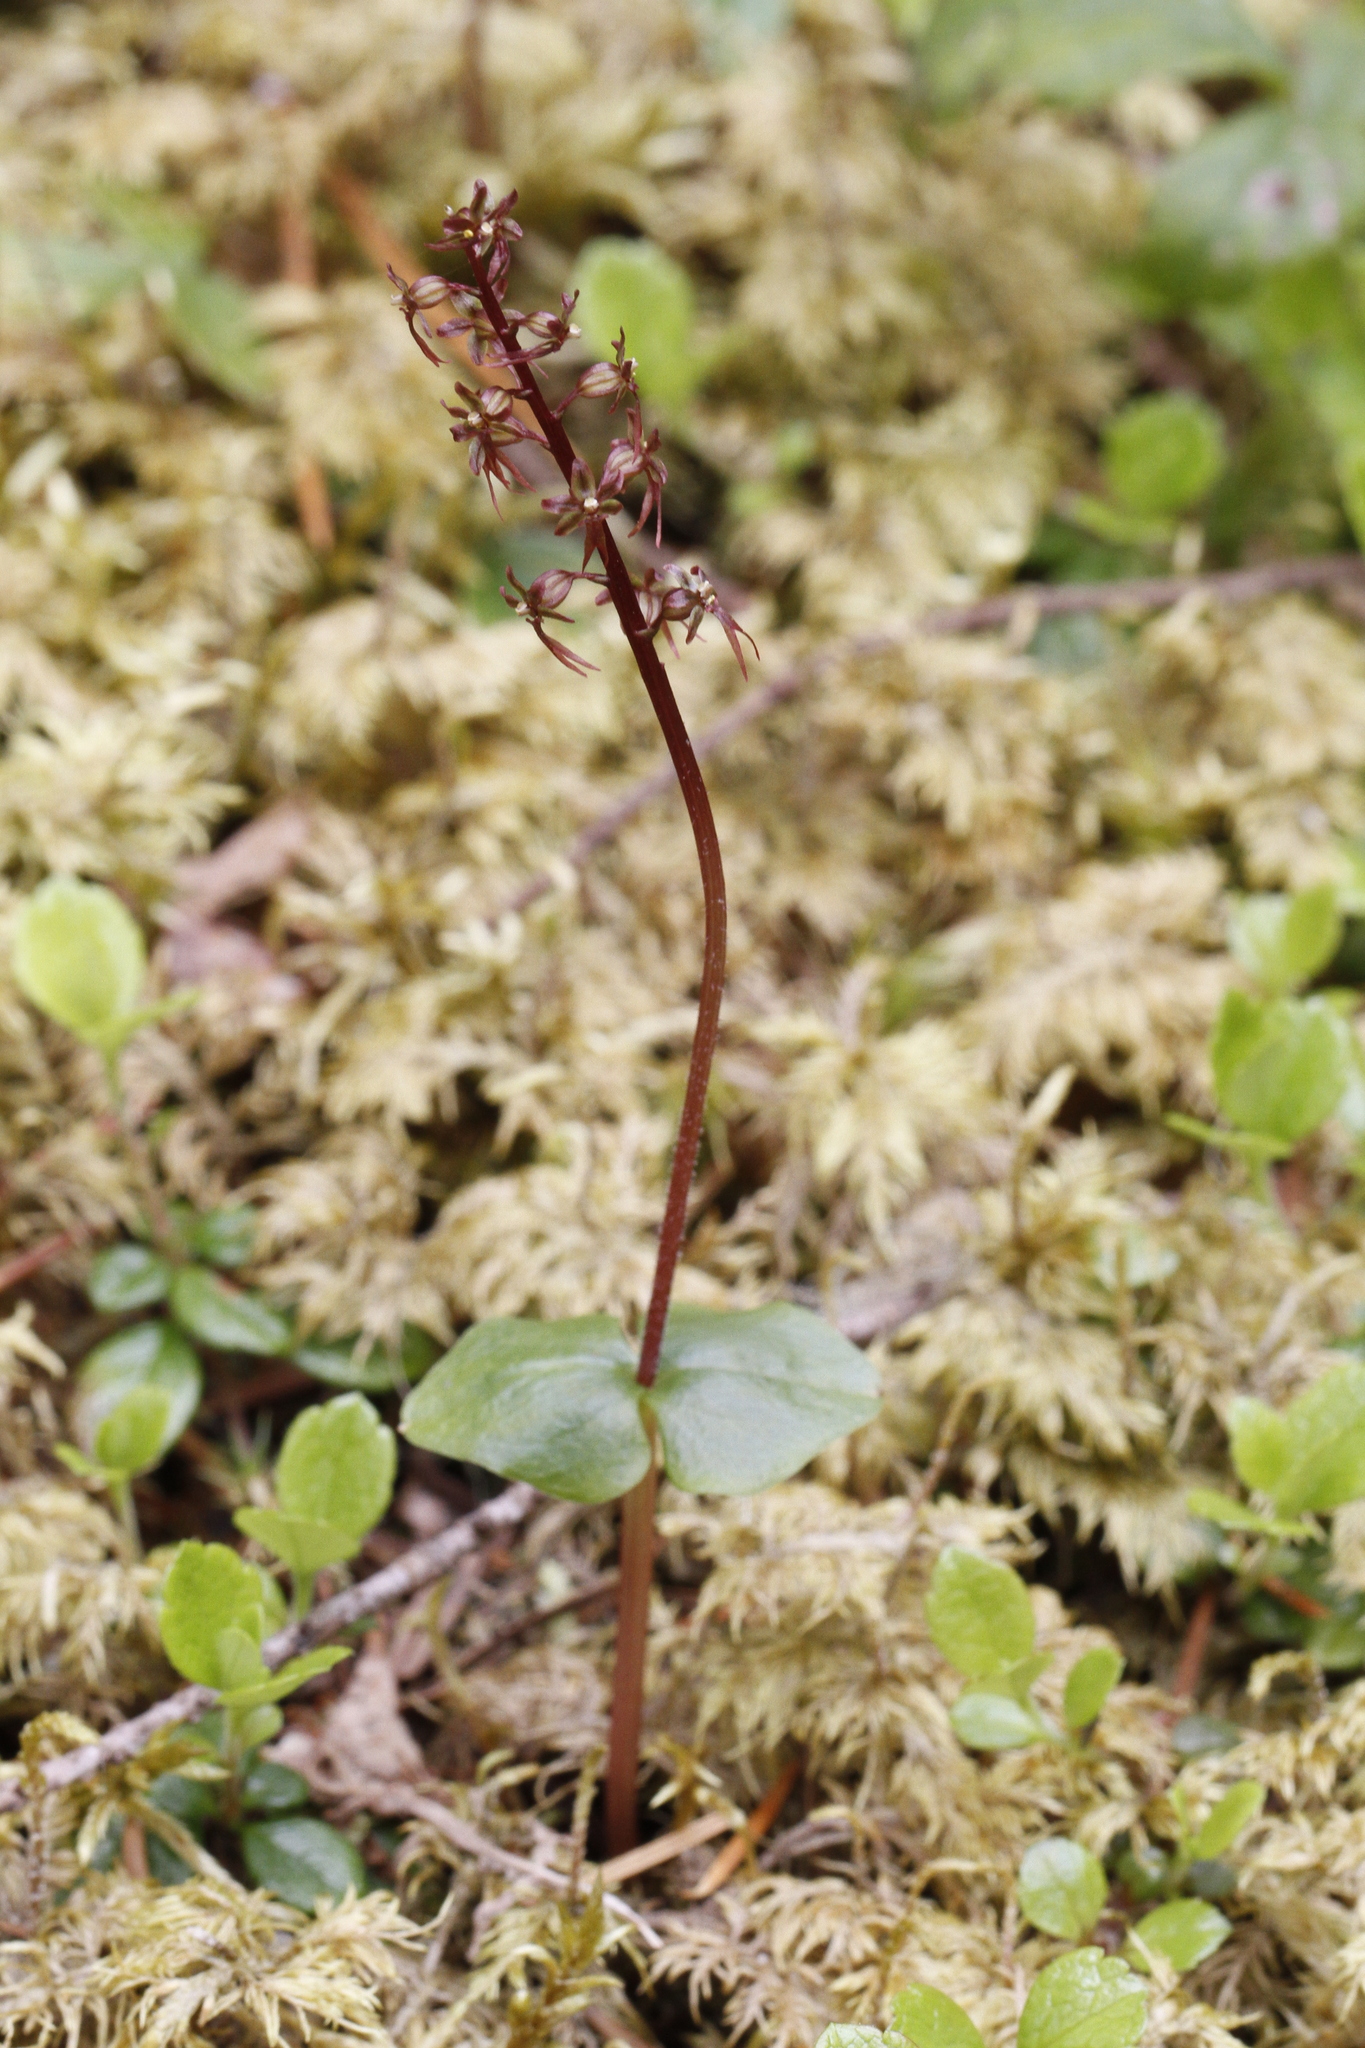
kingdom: Plantae
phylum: Tracheophyta
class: Liliopsida
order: Asparagales
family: Orchidaceae
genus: Neottia
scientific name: Neottia cordata
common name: Lesser twayblade
